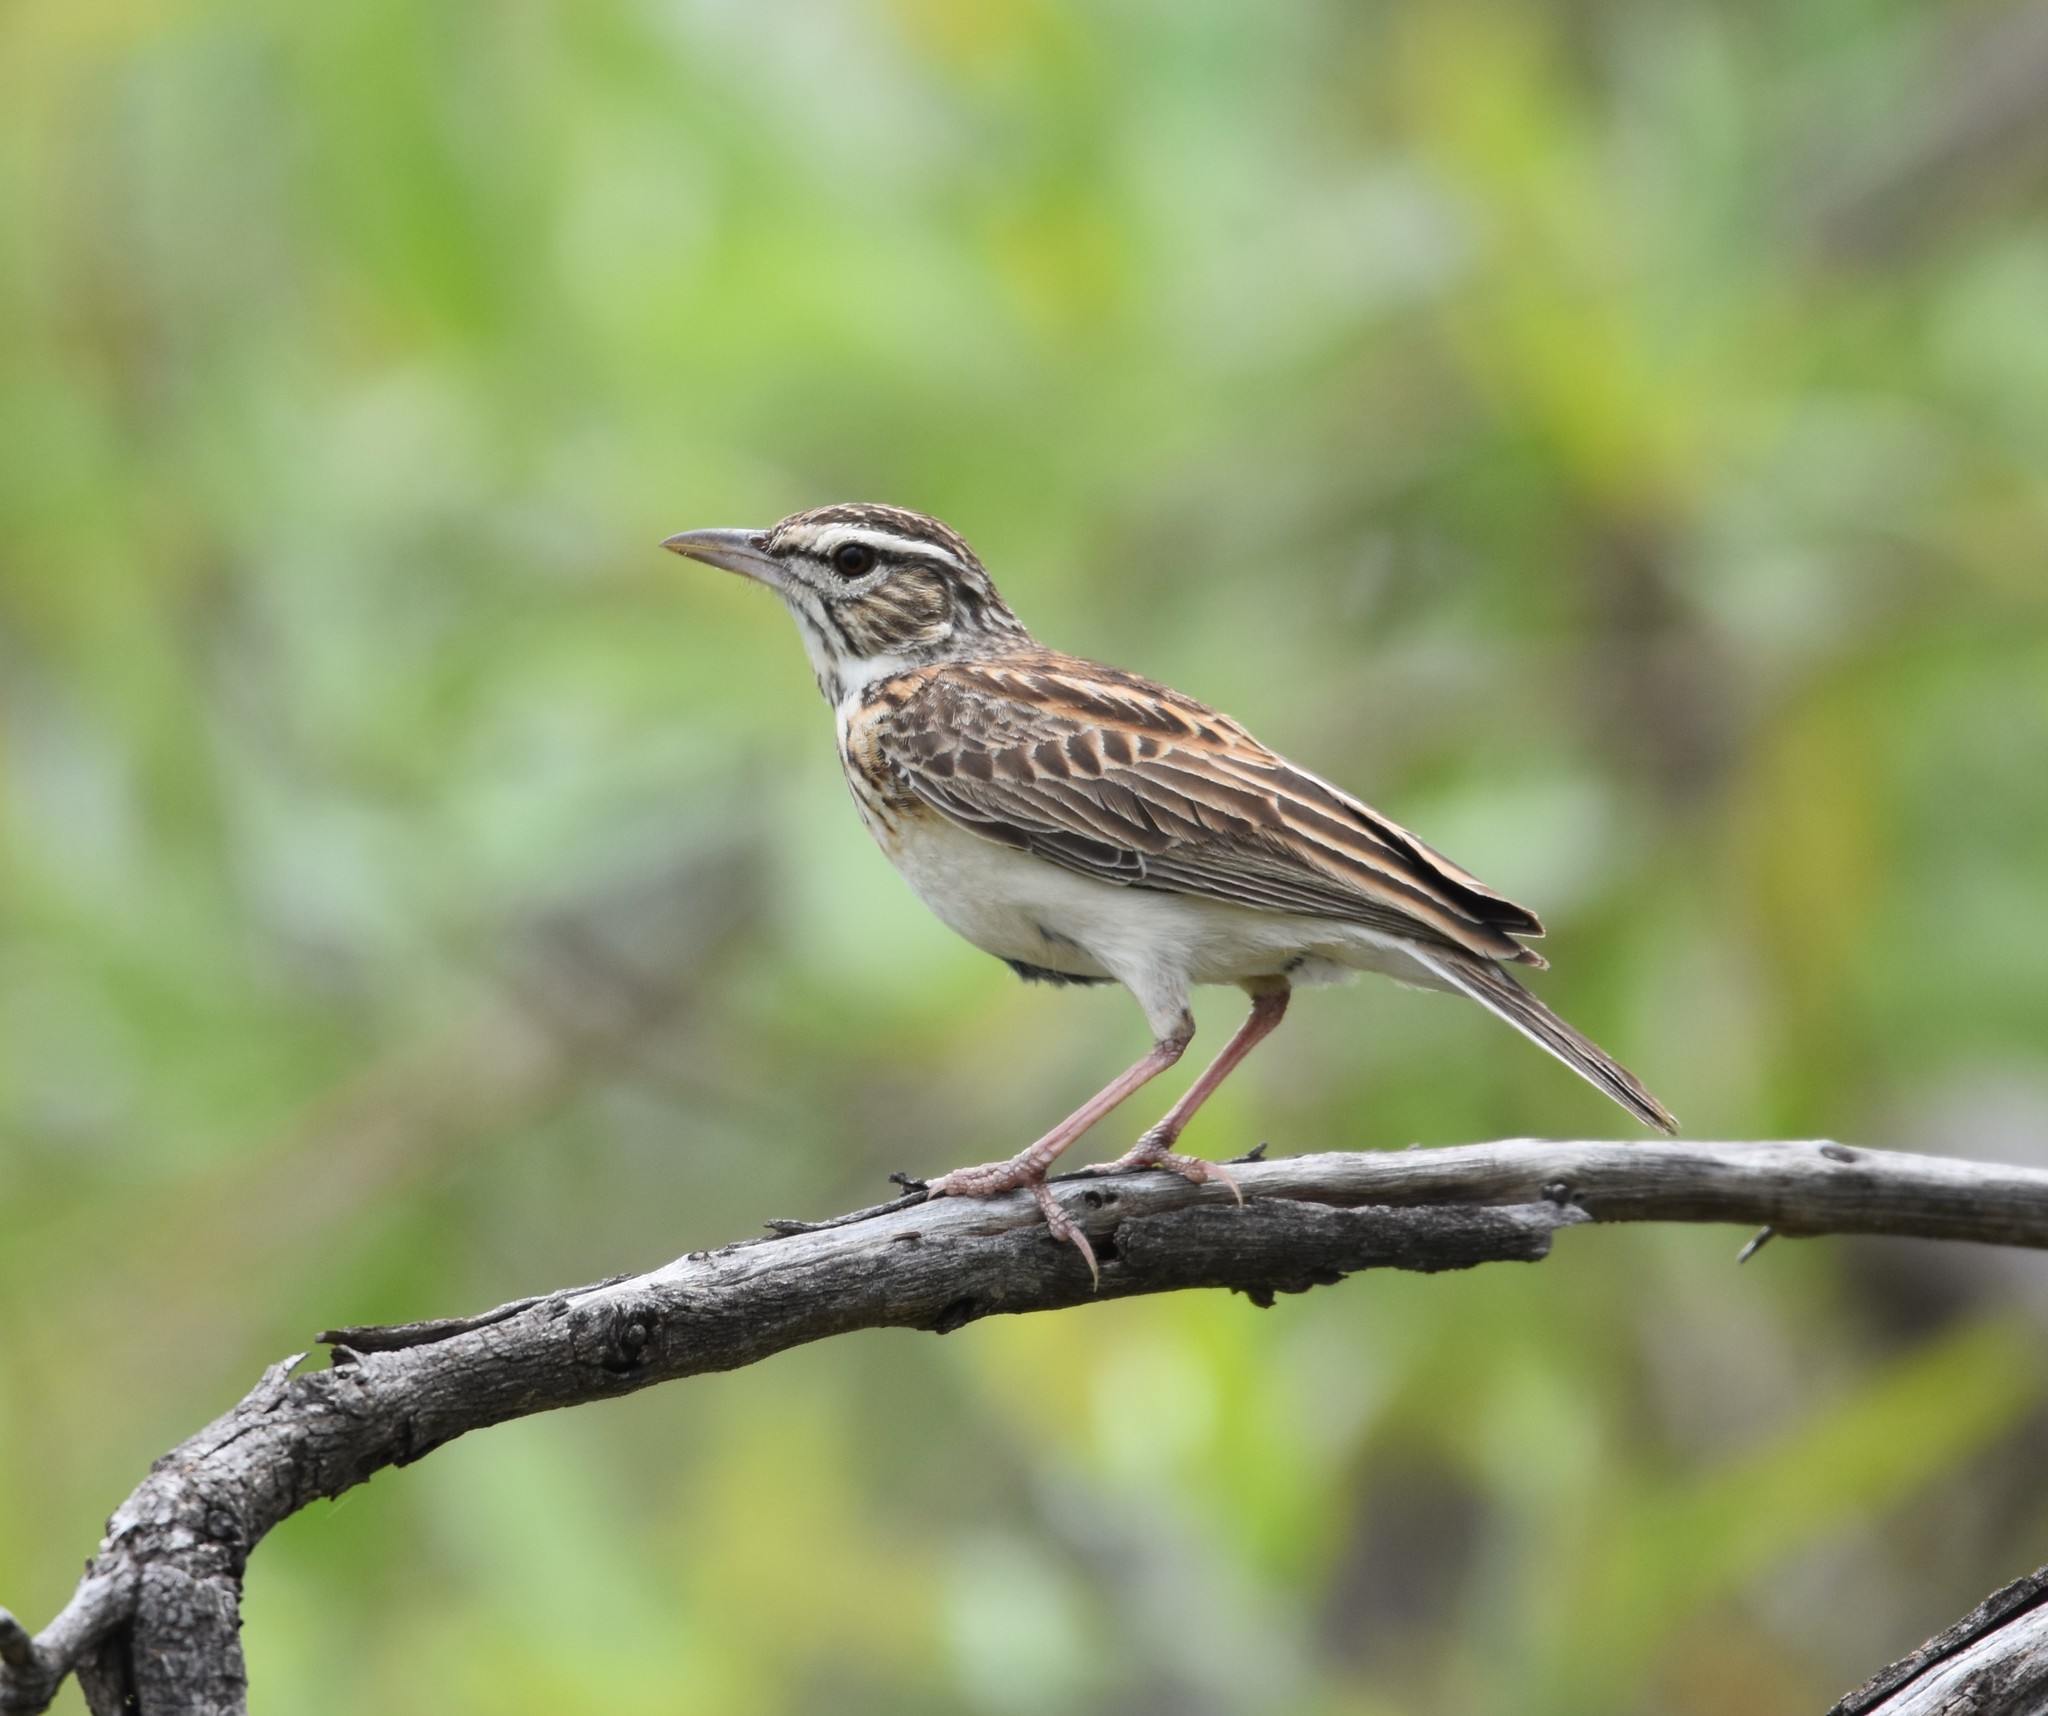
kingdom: Animalia
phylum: Chordata
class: Aves
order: Passeriformes
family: Alaudidae
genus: Calendulauda
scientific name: Calendulauda sabota
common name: Sabota lark
